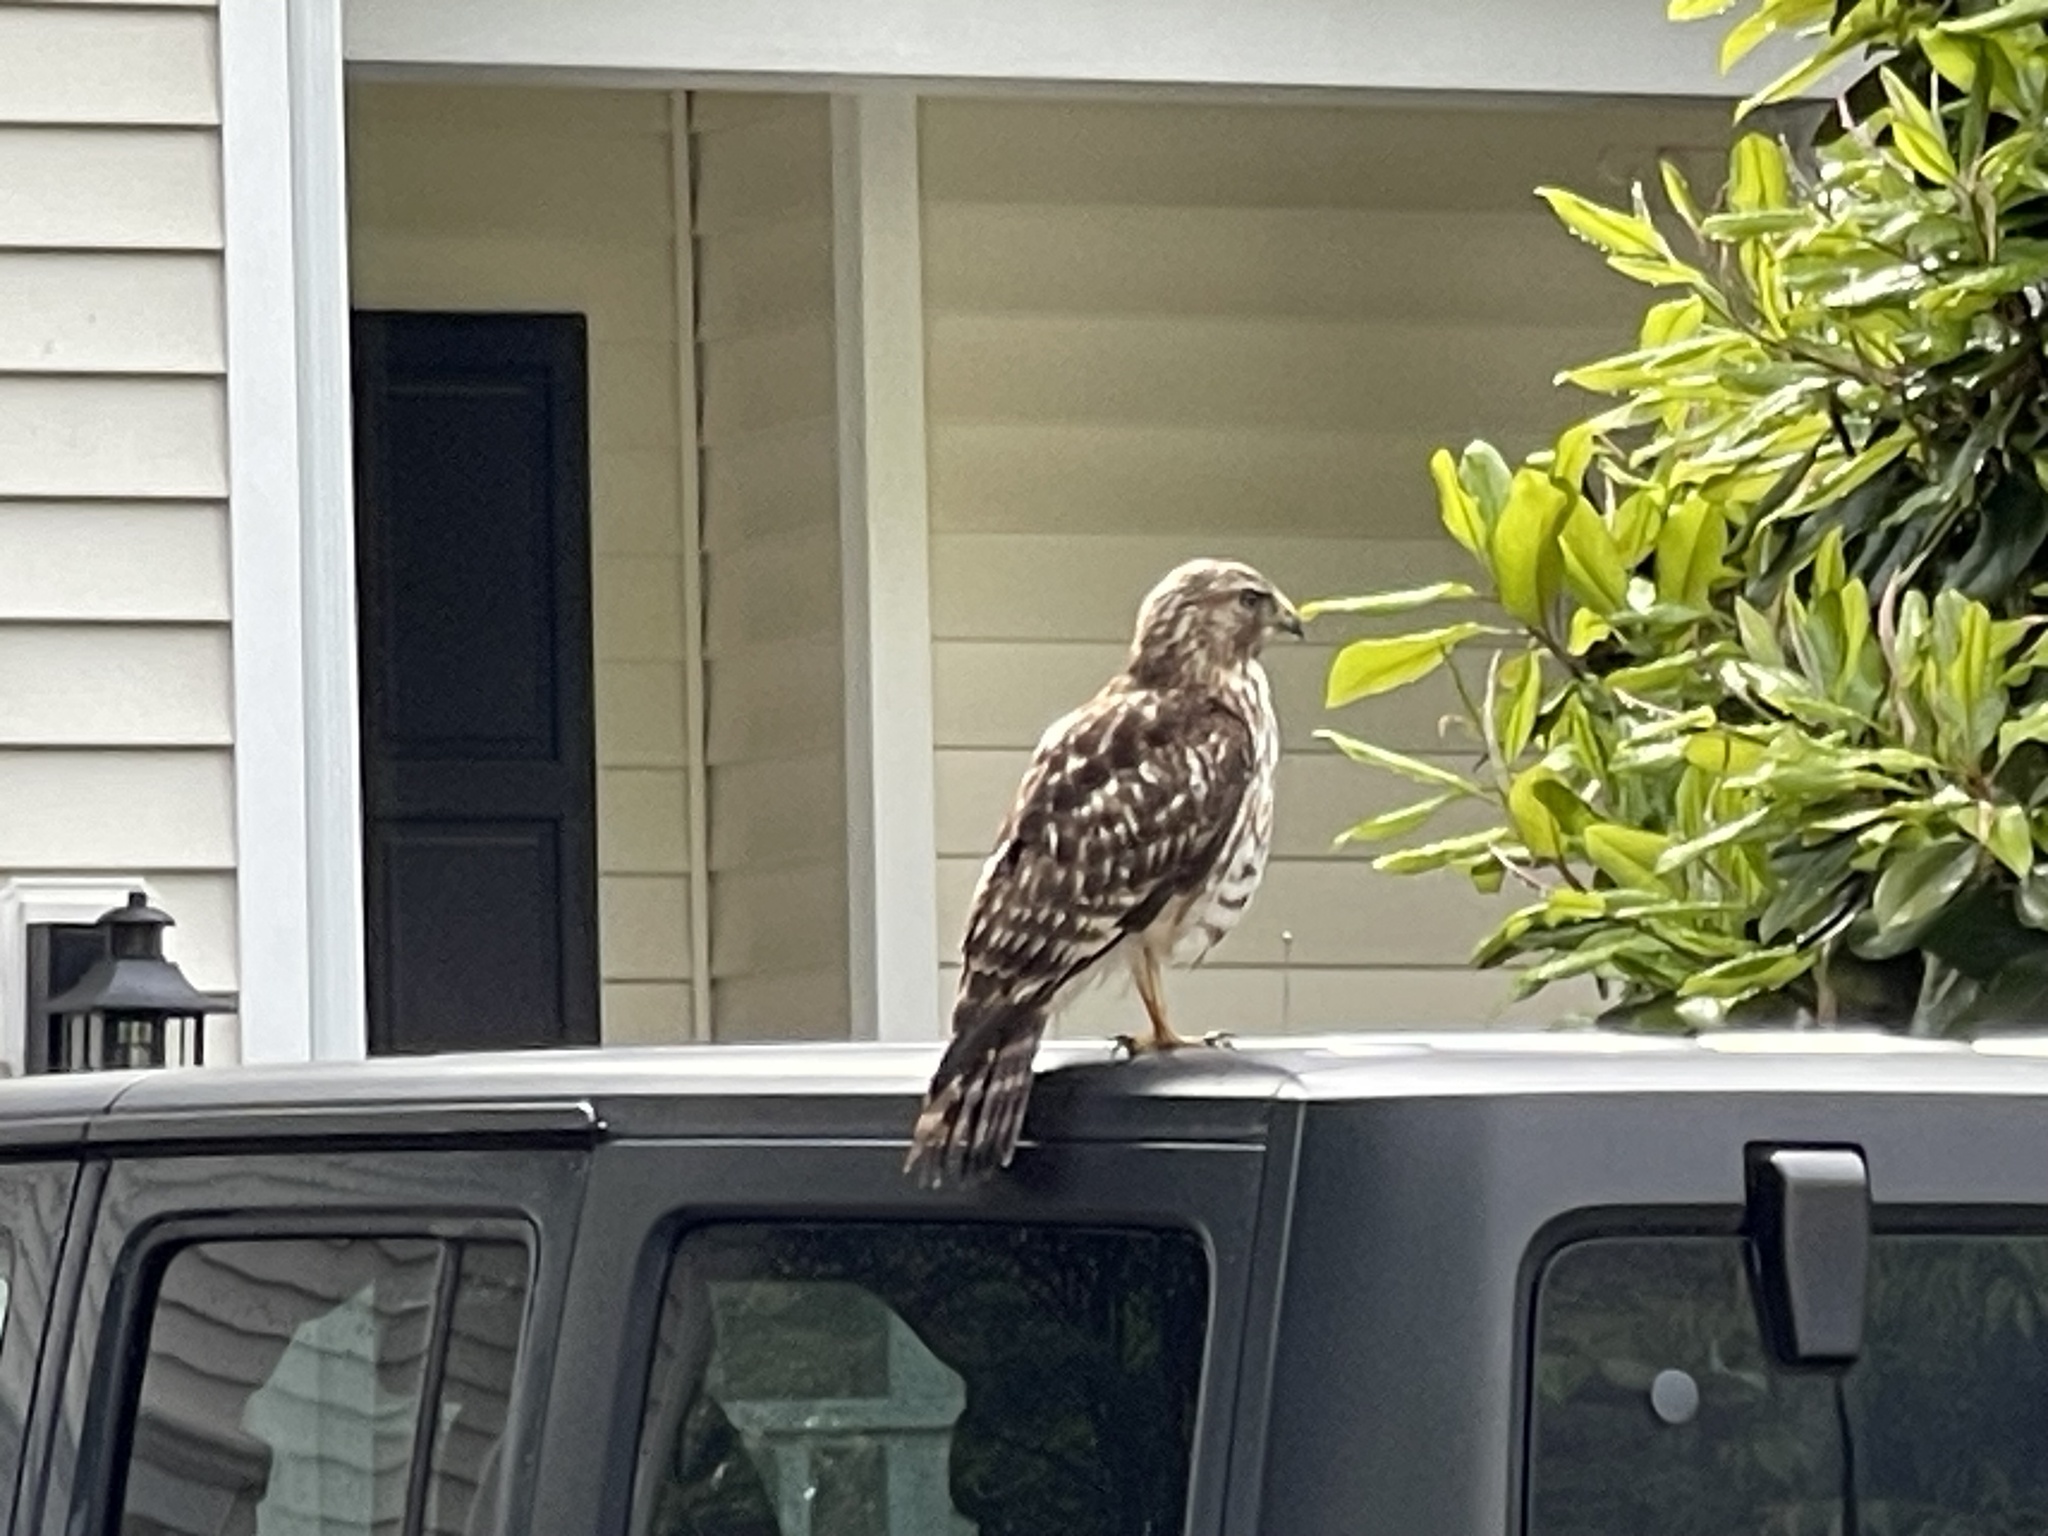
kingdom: Animalia
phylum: Chordata
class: Aves
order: Accipitriformes
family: Accipitridae
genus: Buteo
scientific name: Buteo lineatus
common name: Red-shouldered hawk
